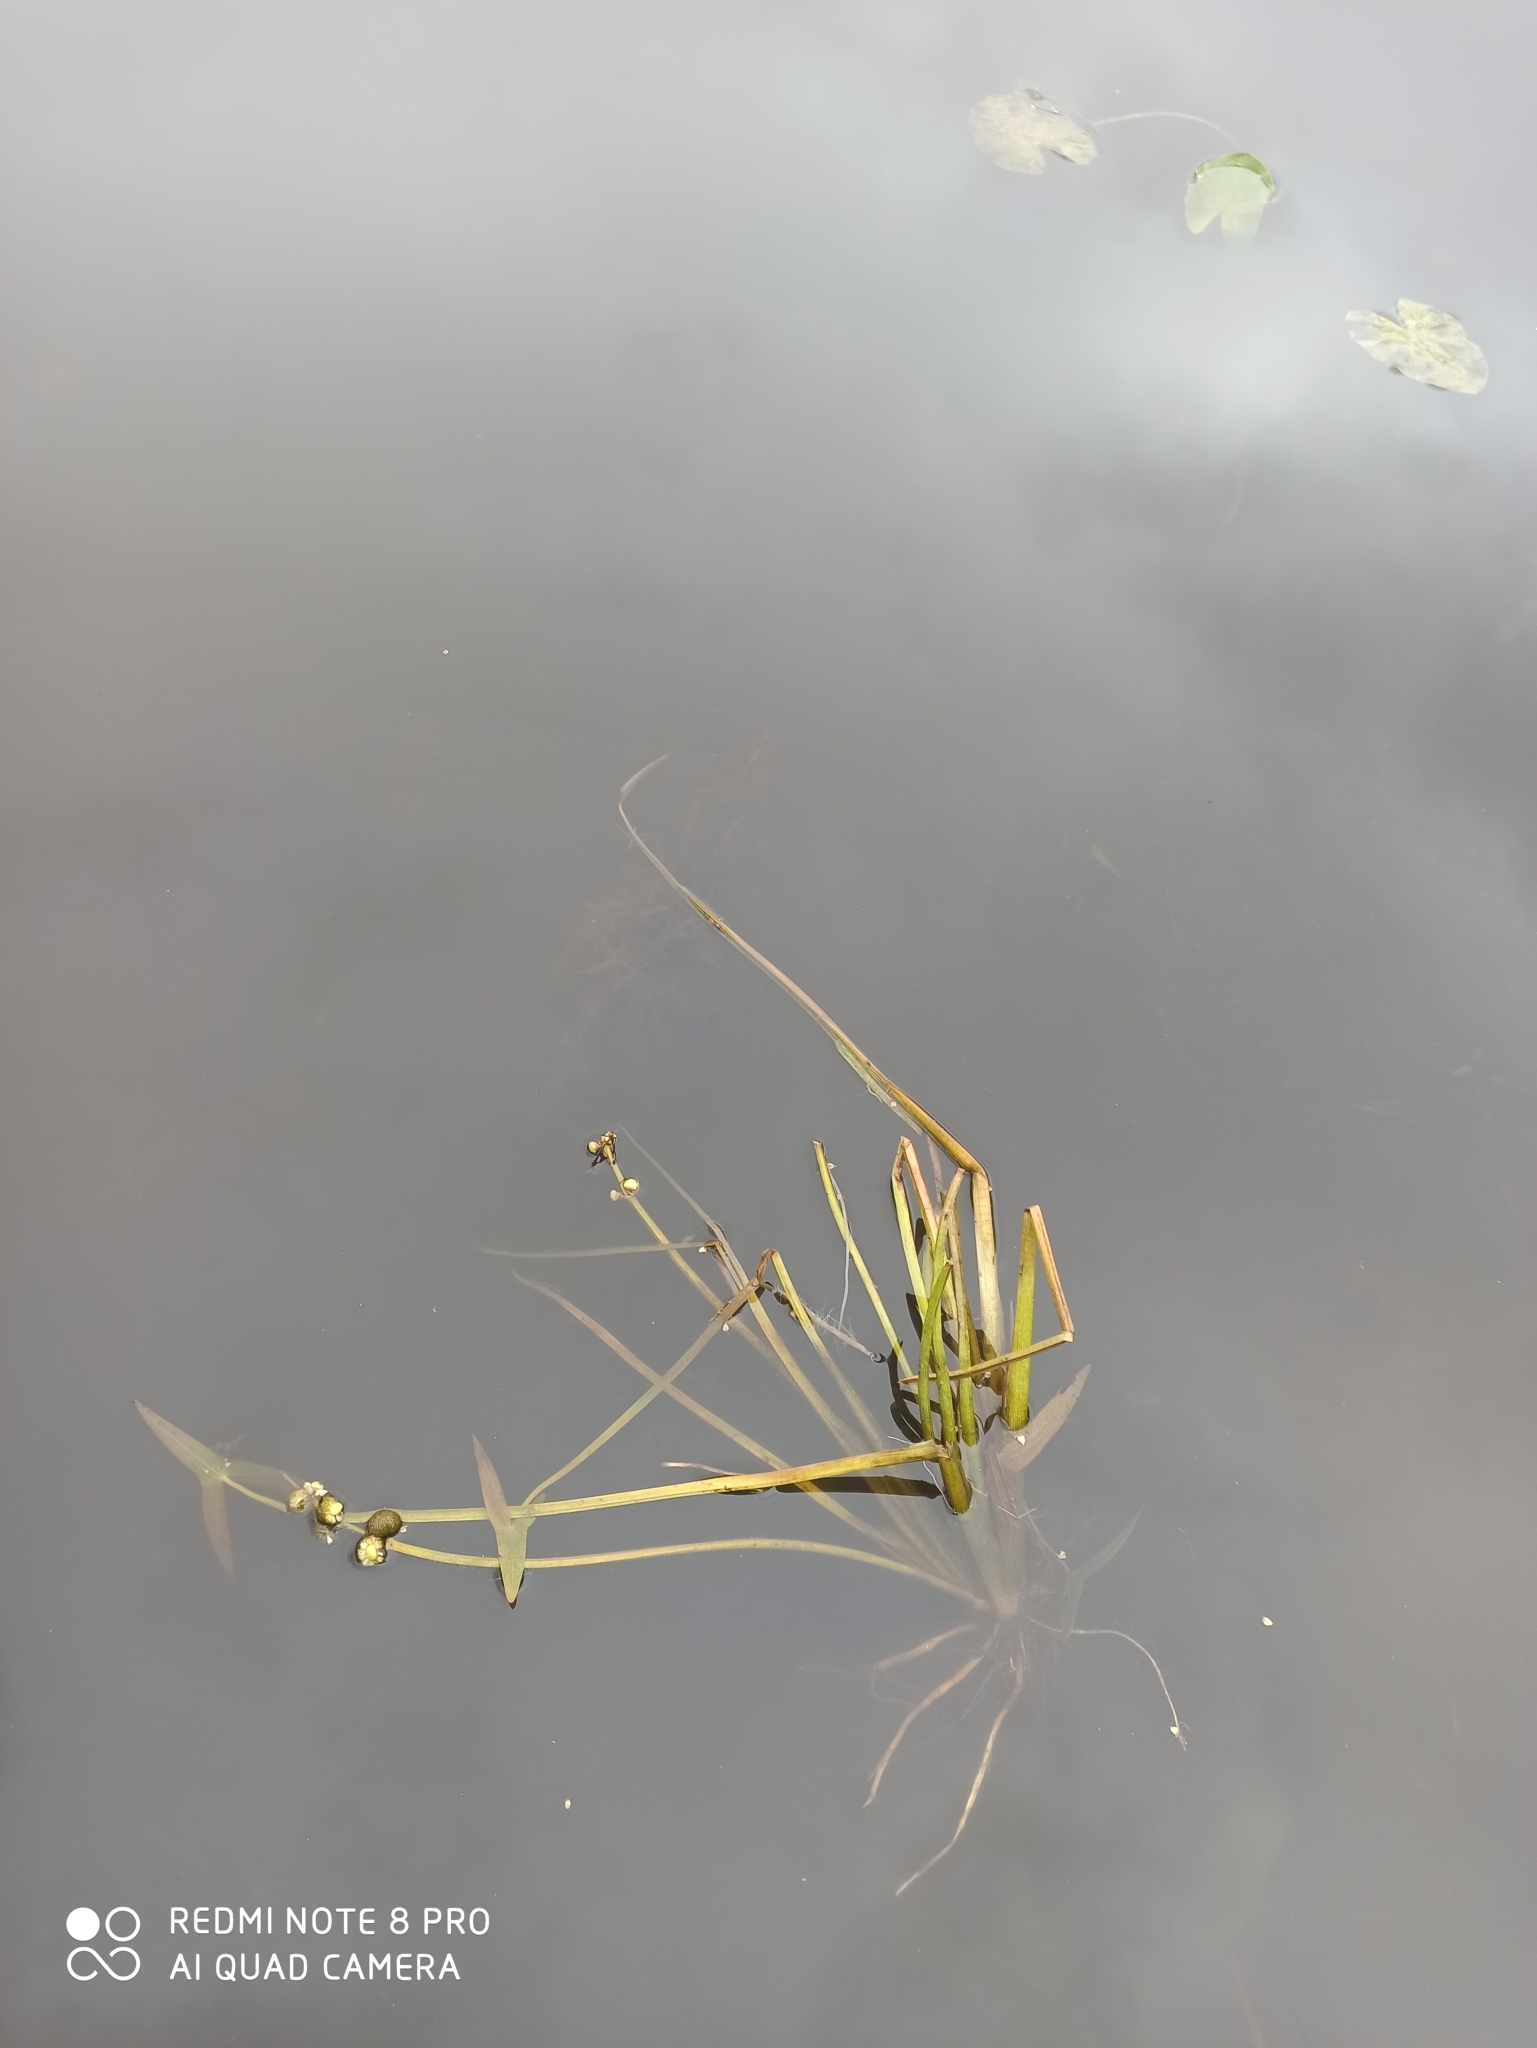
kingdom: Plantae
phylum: Tracheophyta
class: Liliopsida
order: Alismatales
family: Alismataceae
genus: Sagittaria
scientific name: Sagittaria sagittifolia
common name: Arrowhead
